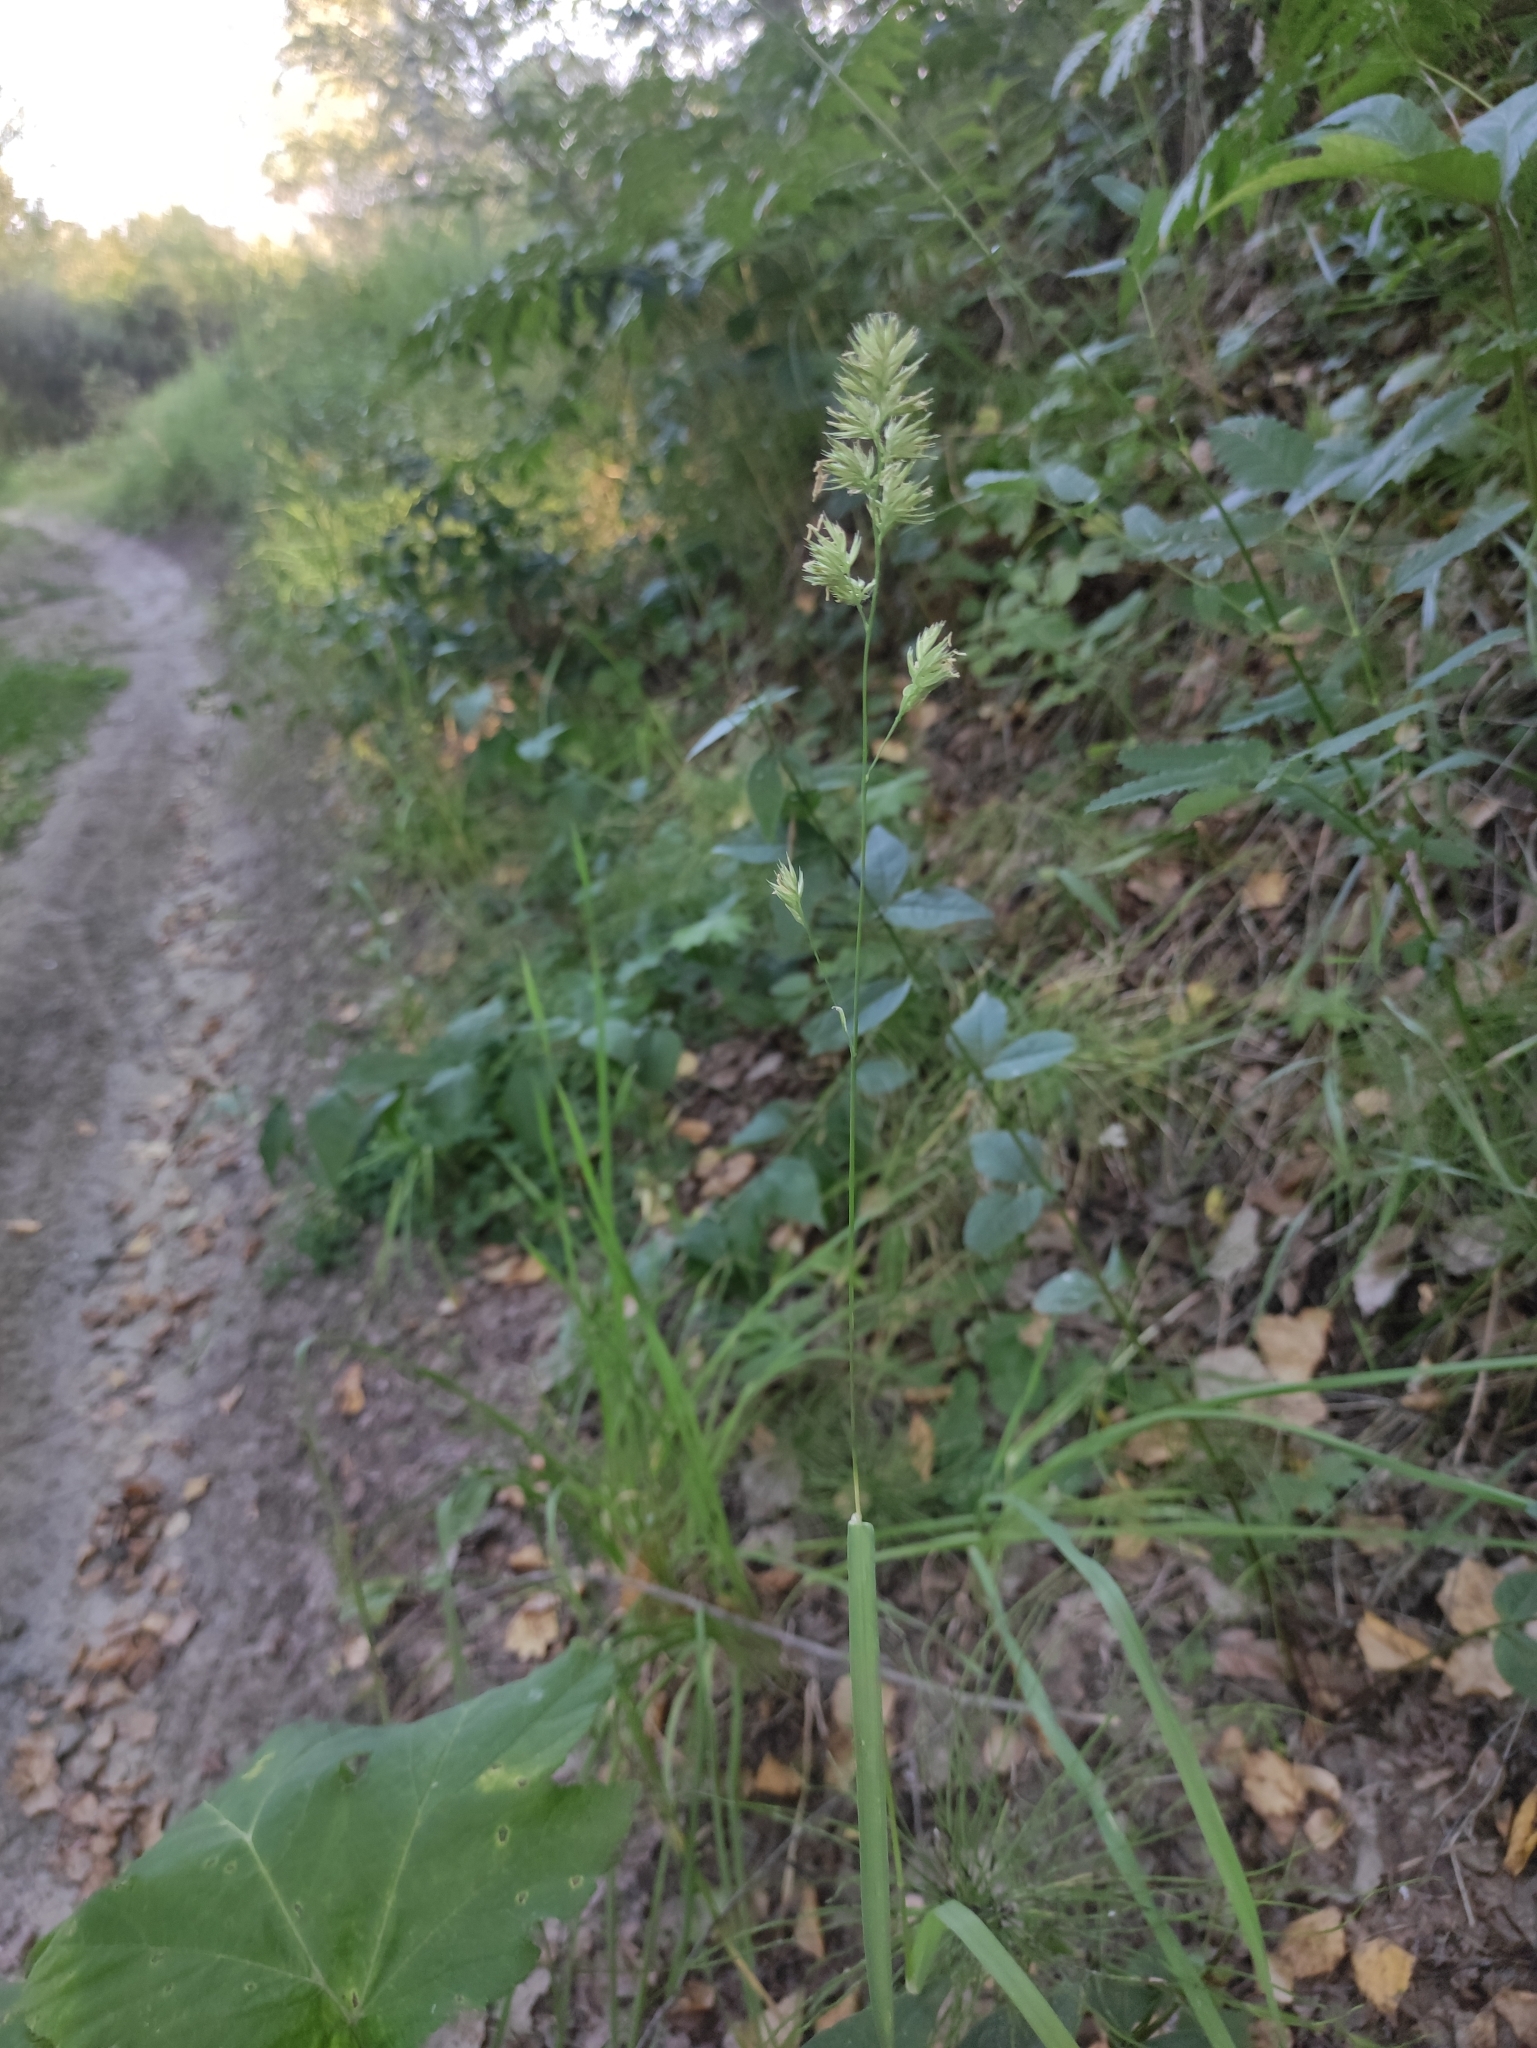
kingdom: Plantae
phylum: Tracheophyta
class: Liliopsida
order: Poales
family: Poaceae
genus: Dactylis
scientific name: Dactylis glomerata
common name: Orchardgrass
